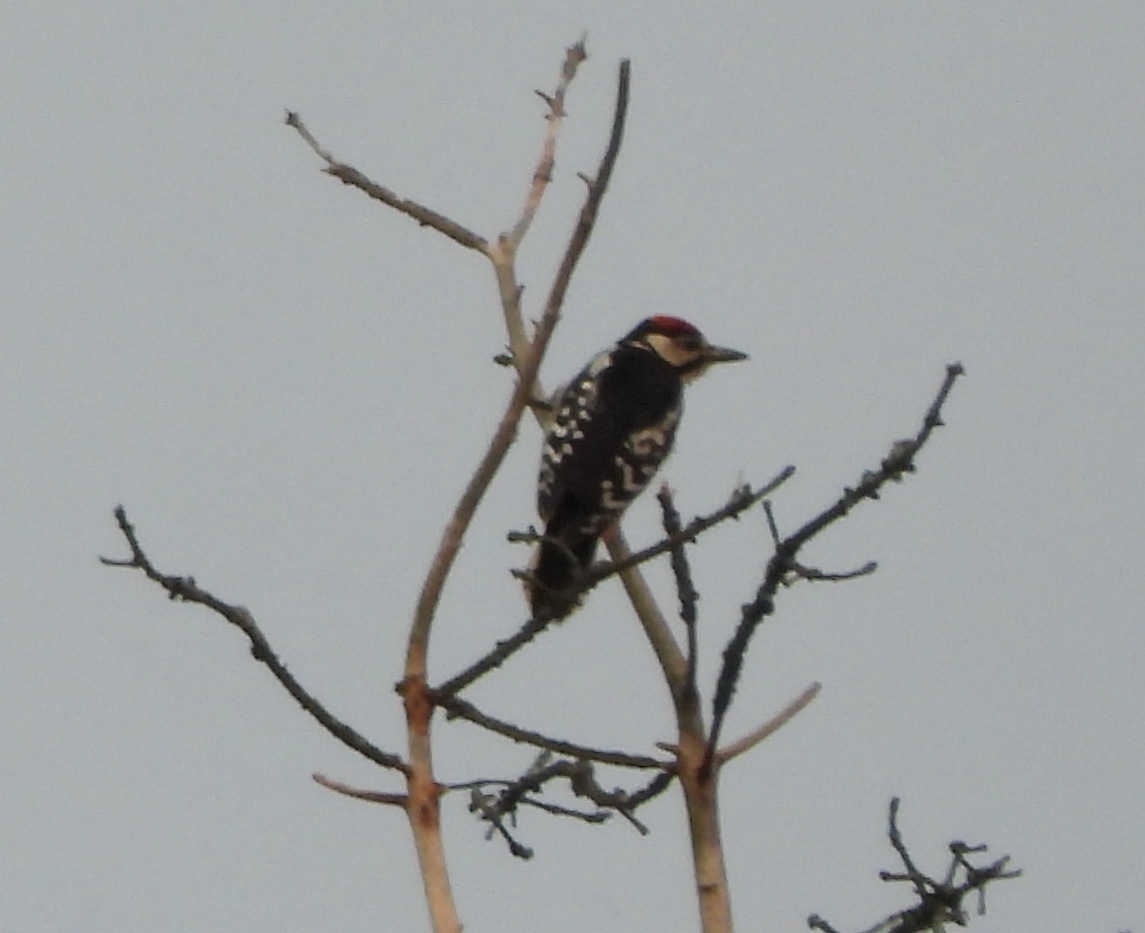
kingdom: Animalia
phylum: Chordata
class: Aves
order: Piciformes
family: Picidae
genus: Dendrocopos
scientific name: Dendrocopos major
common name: Great spotted woodpecker
